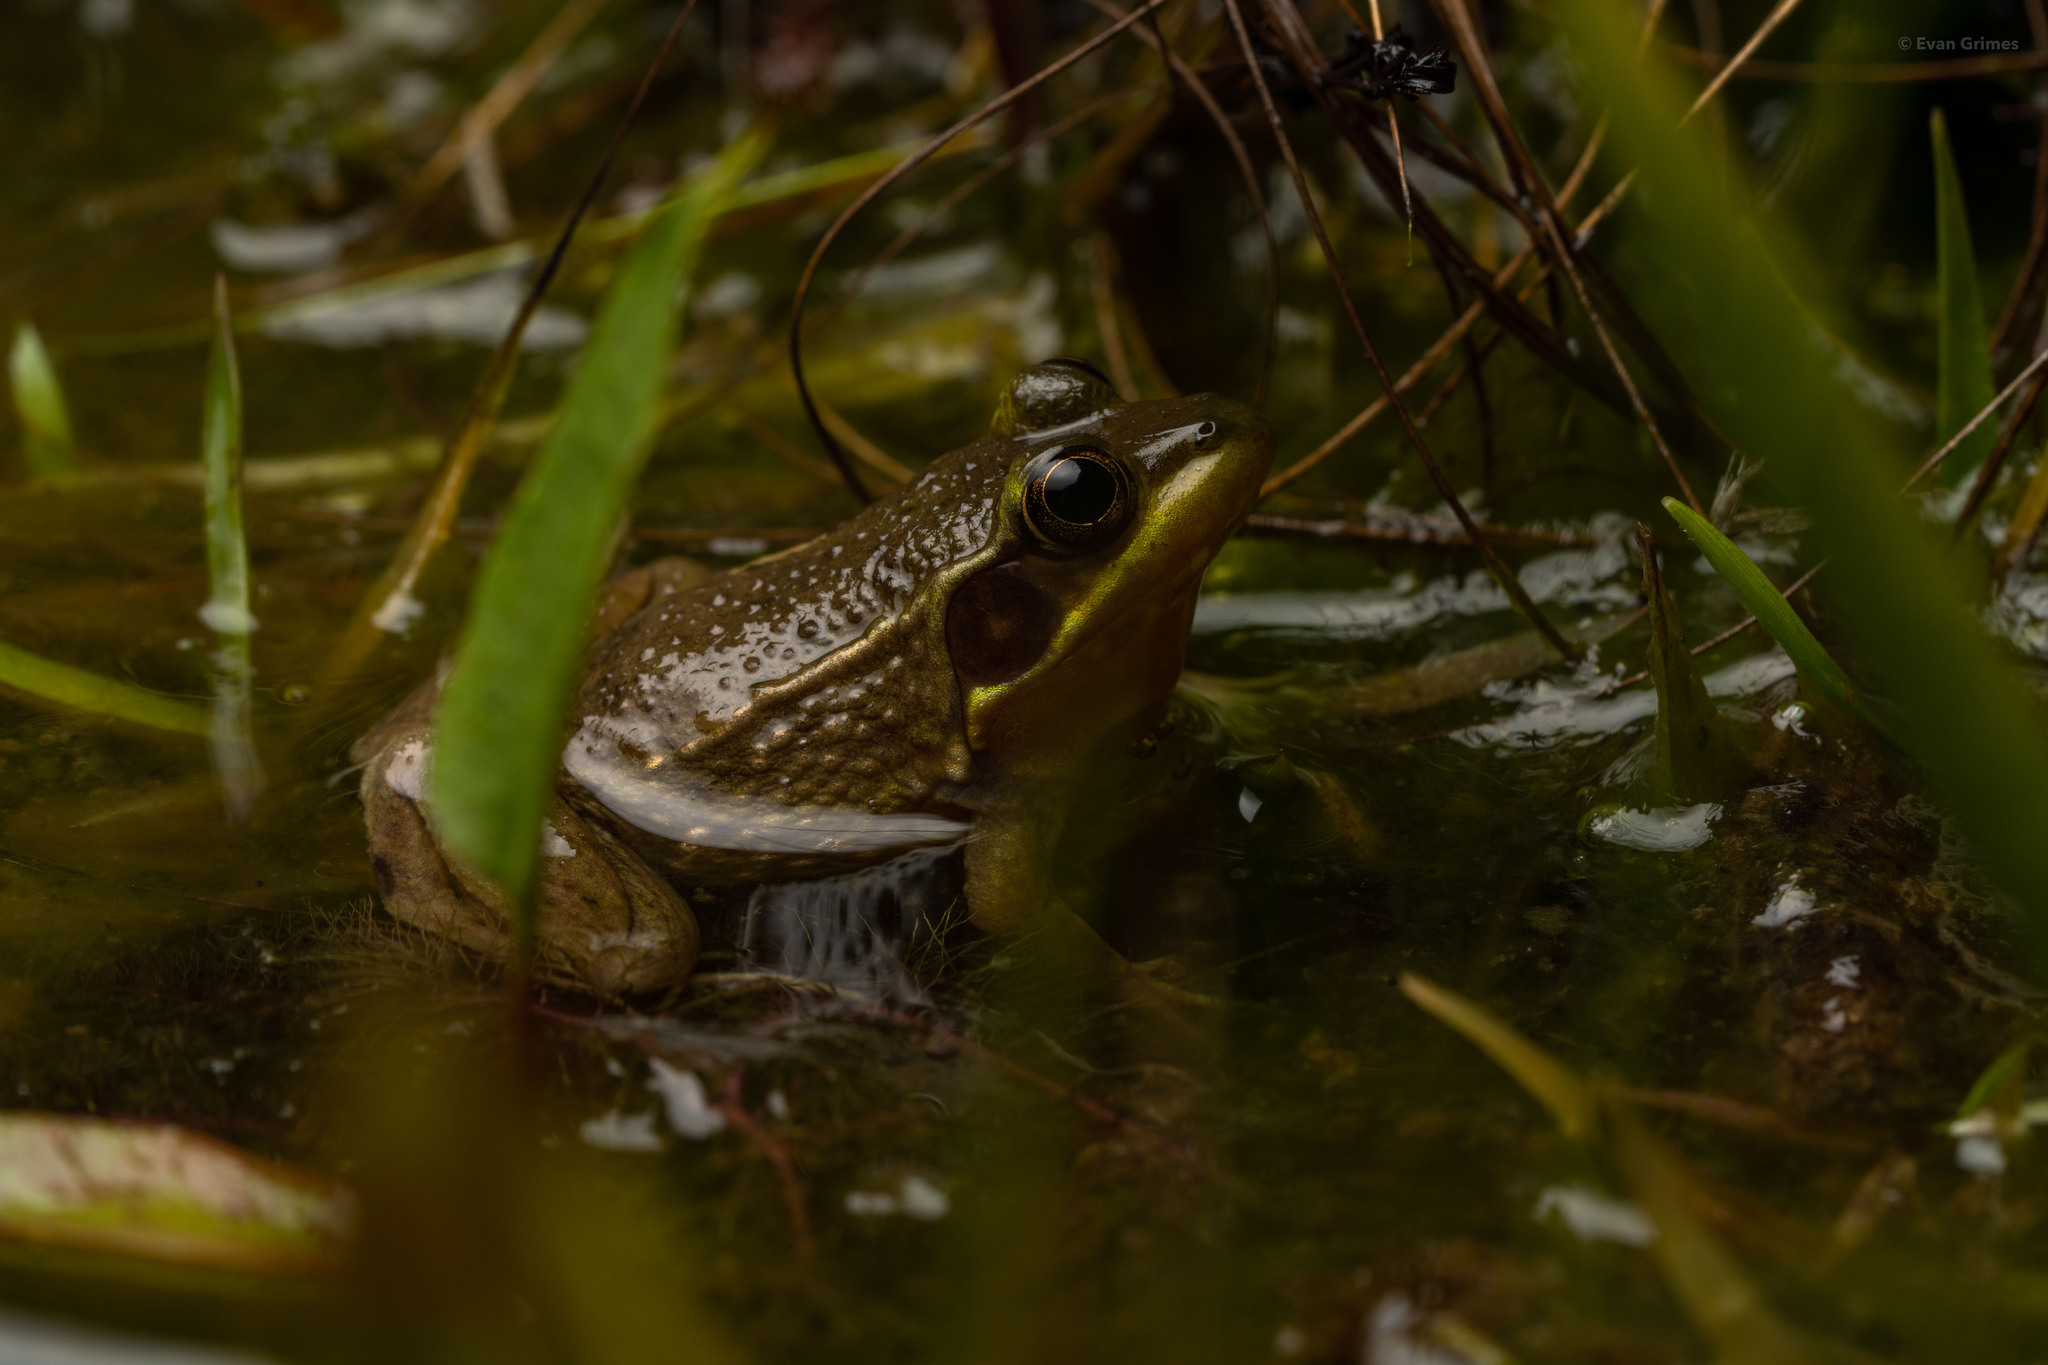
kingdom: Animalia
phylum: Chordata
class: Amphibia
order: Anura
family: Ranidae
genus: Lithobates
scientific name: Lithobates okaloosae
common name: Florida bog frog
